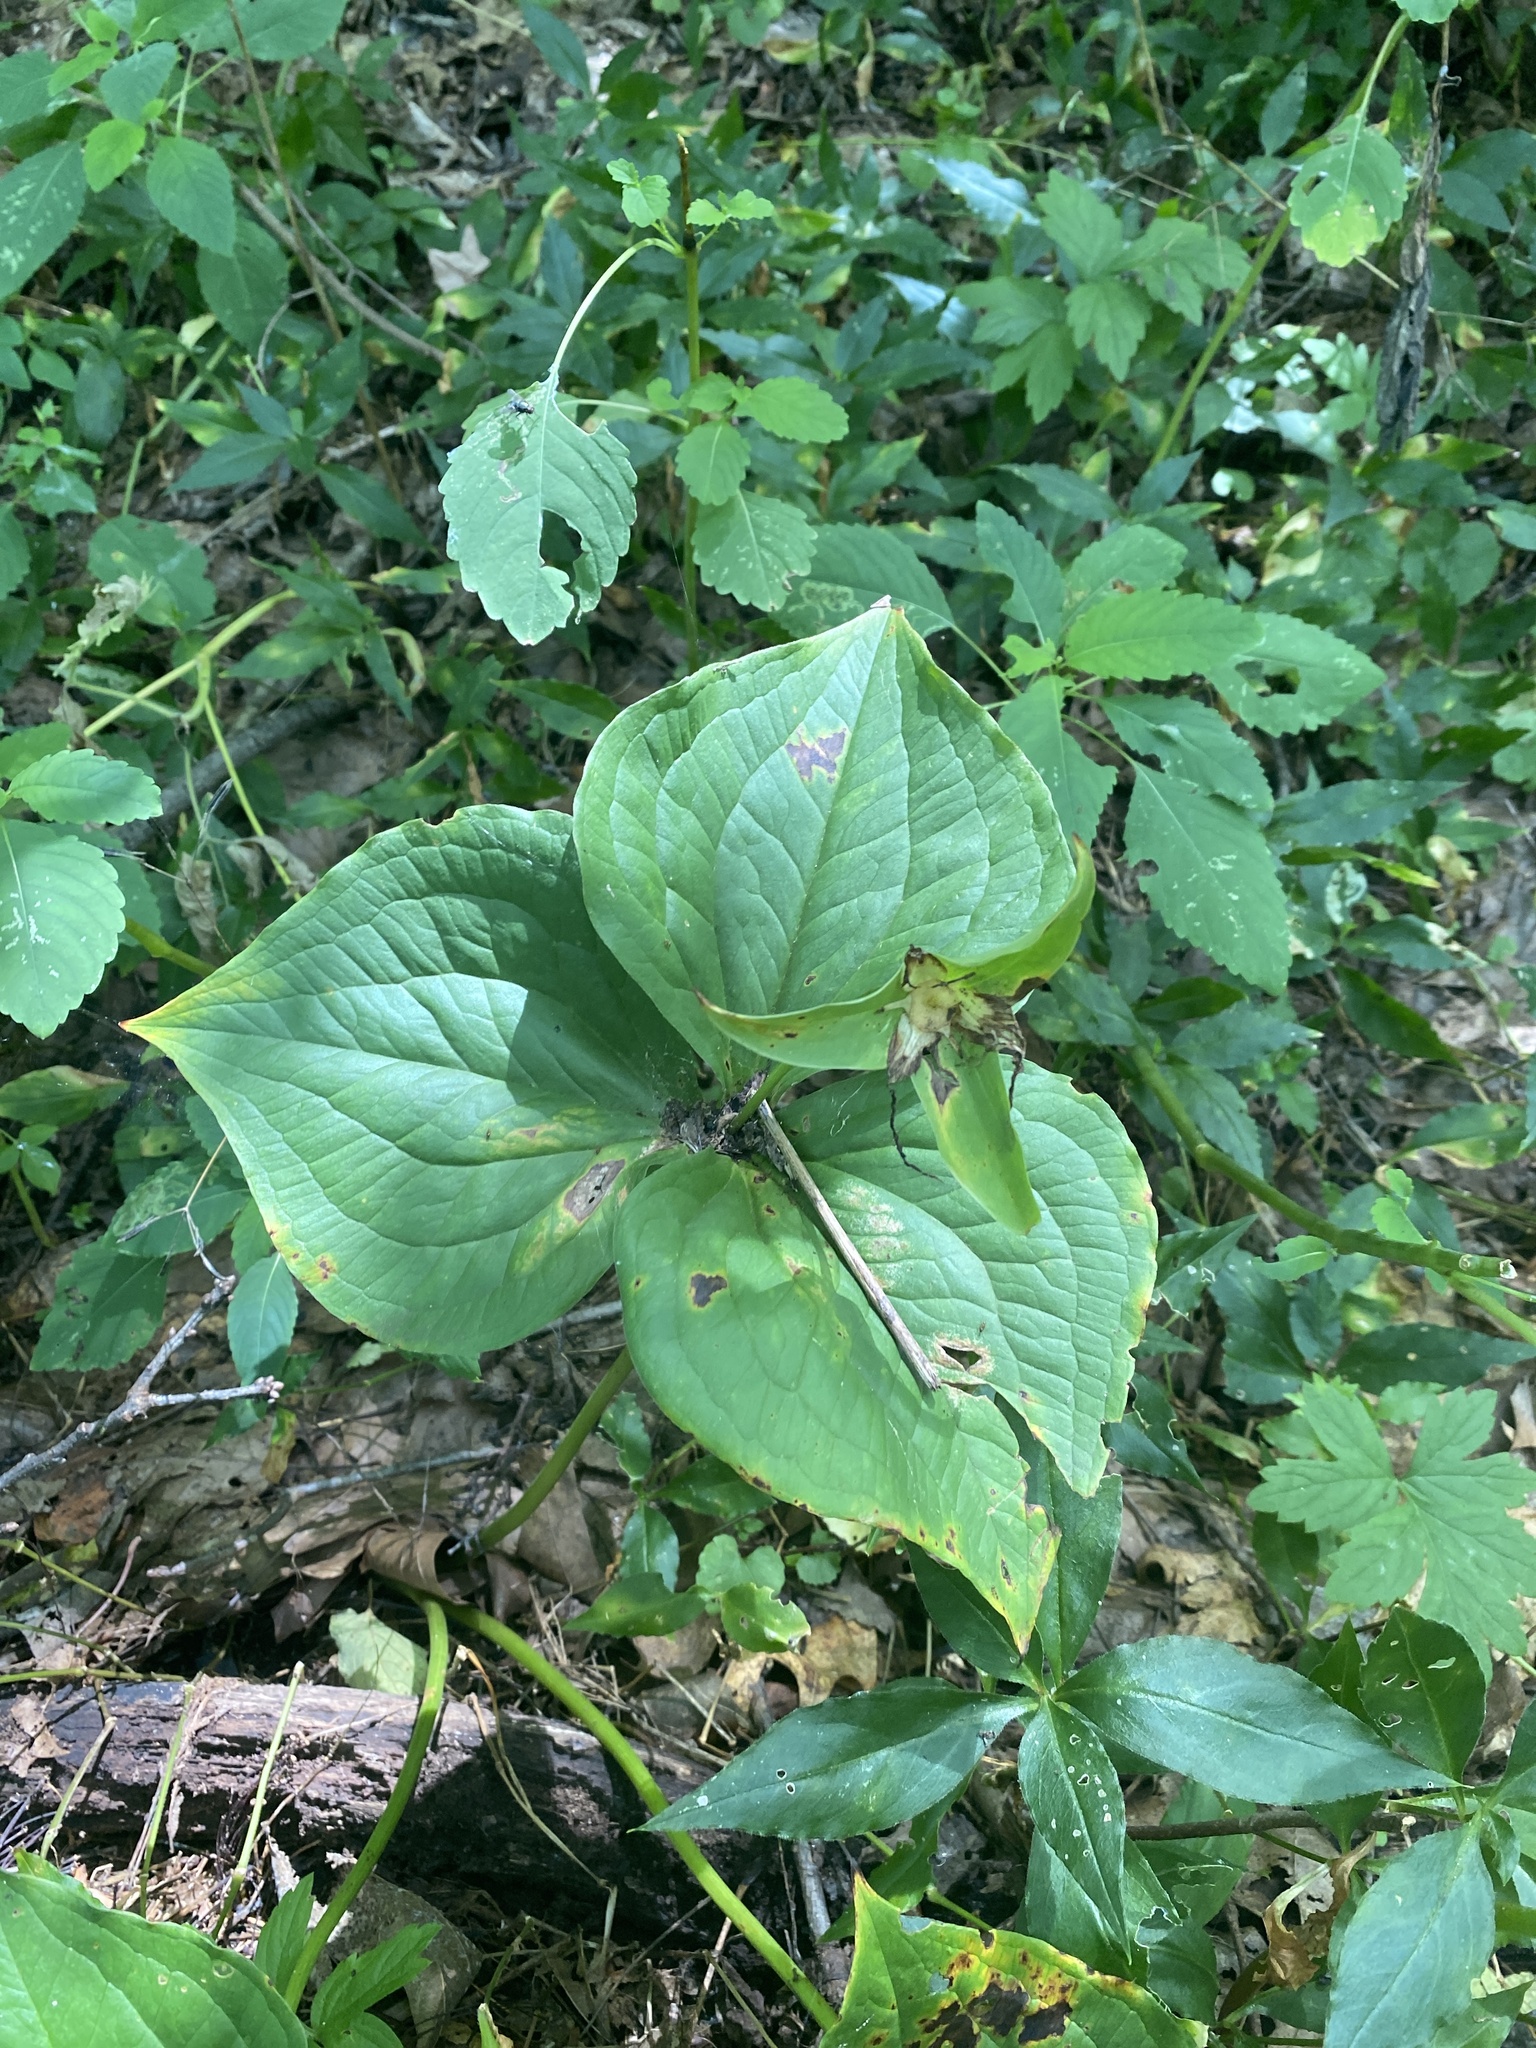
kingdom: Plantae
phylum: Tracheophyta
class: Liliopsida
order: Liliales
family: Melanthiaceae
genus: Trillium
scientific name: Trillium grandiflorum
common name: Great white trillium
